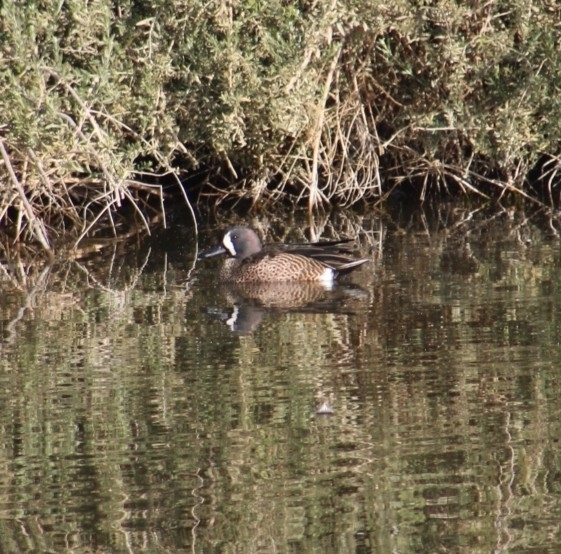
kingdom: Animalia
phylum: Chordata
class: Aves
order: Anseriformes
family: Anatidae
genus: Spatula
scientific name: Spatula discors
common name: Blue-winged teal
